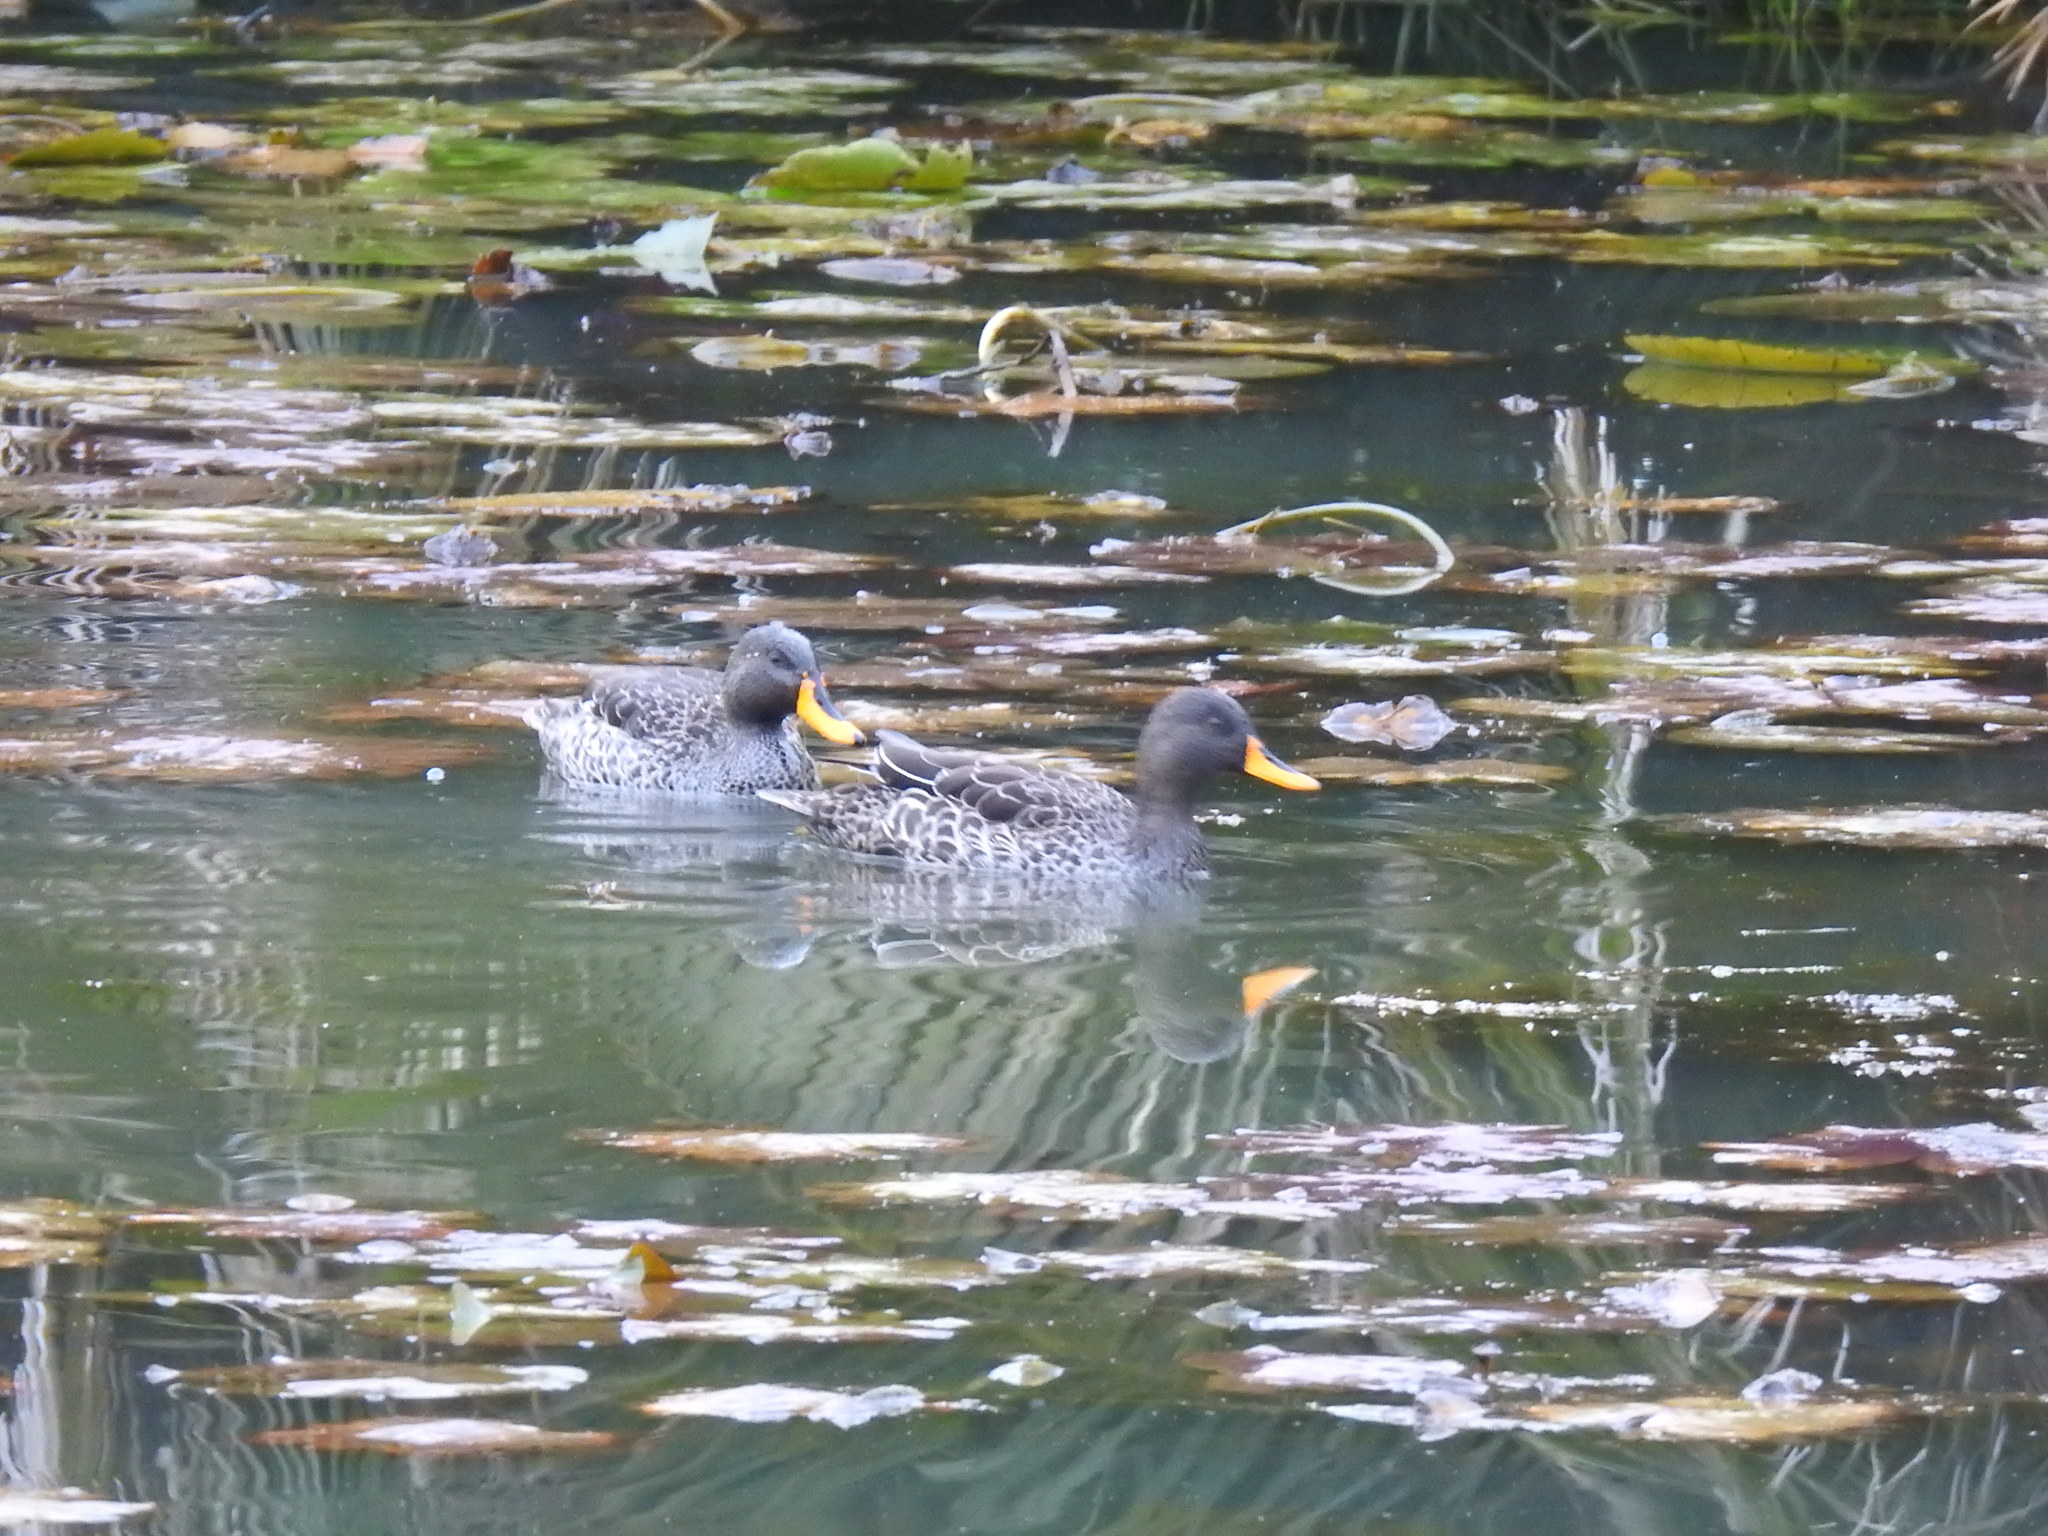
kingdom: Animalia
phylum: Chordata
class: Aves
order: Anseriformes
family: Anatidae
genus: Anas
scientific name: Anas undulata
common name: Yellow-billed duck
